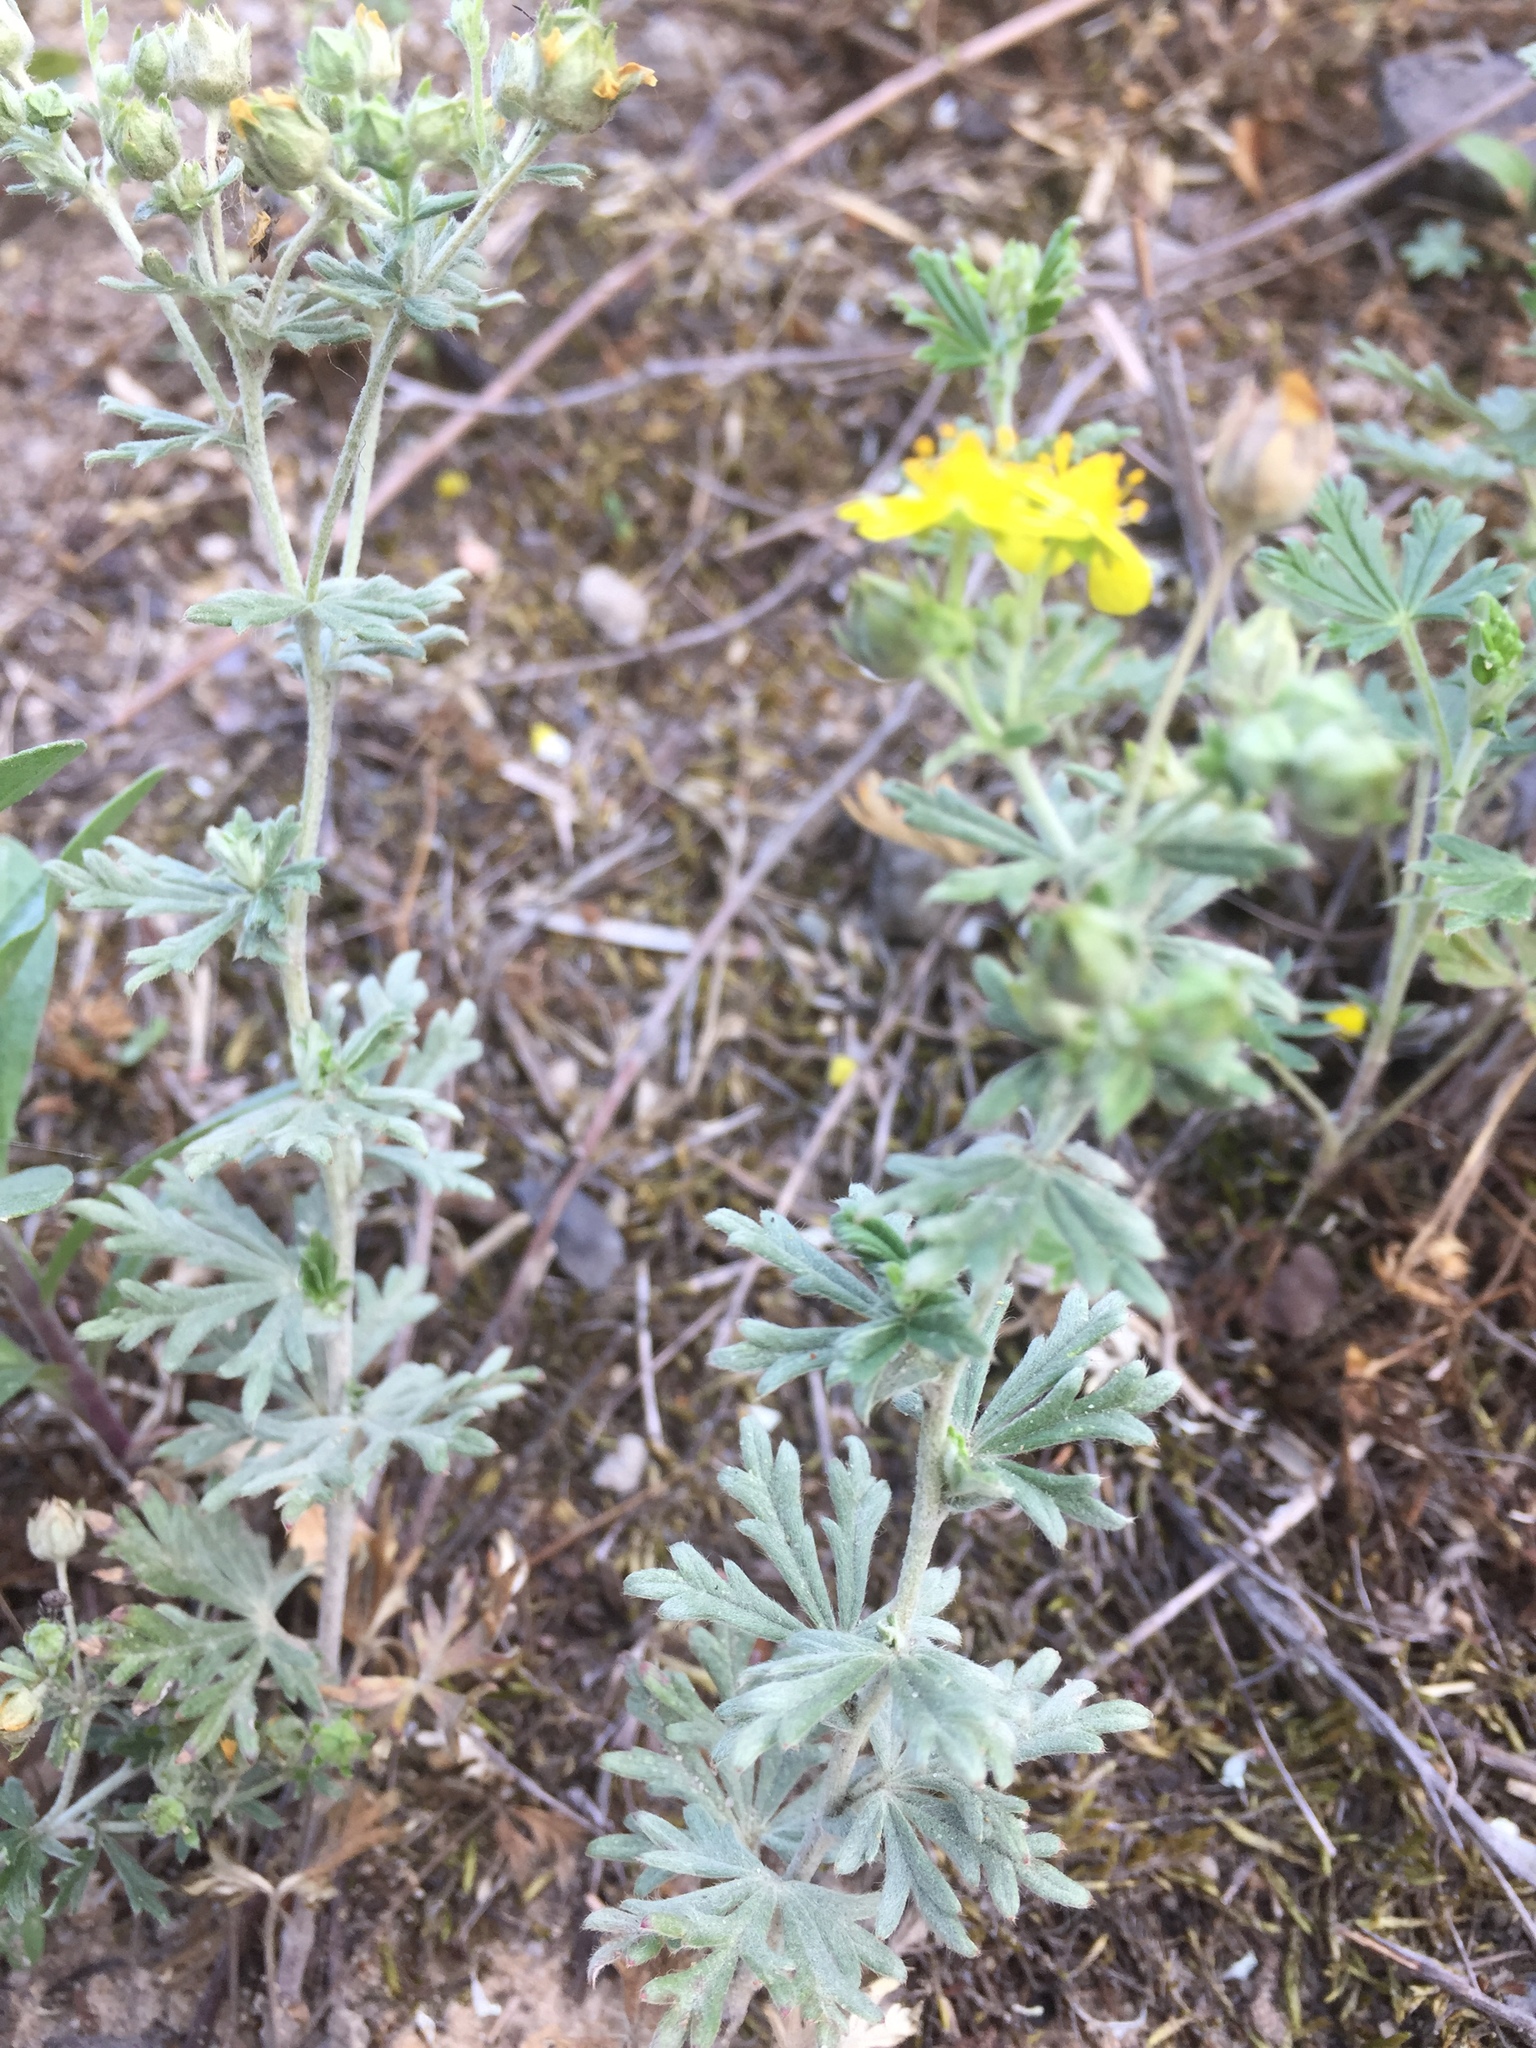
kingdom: Plantae
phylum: Tracheophyta
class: Magnoliopsida
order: Rosales
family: Rosaceae
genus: Potentilla
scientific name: Potentilla argentea
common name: Hoary cinquefoil
